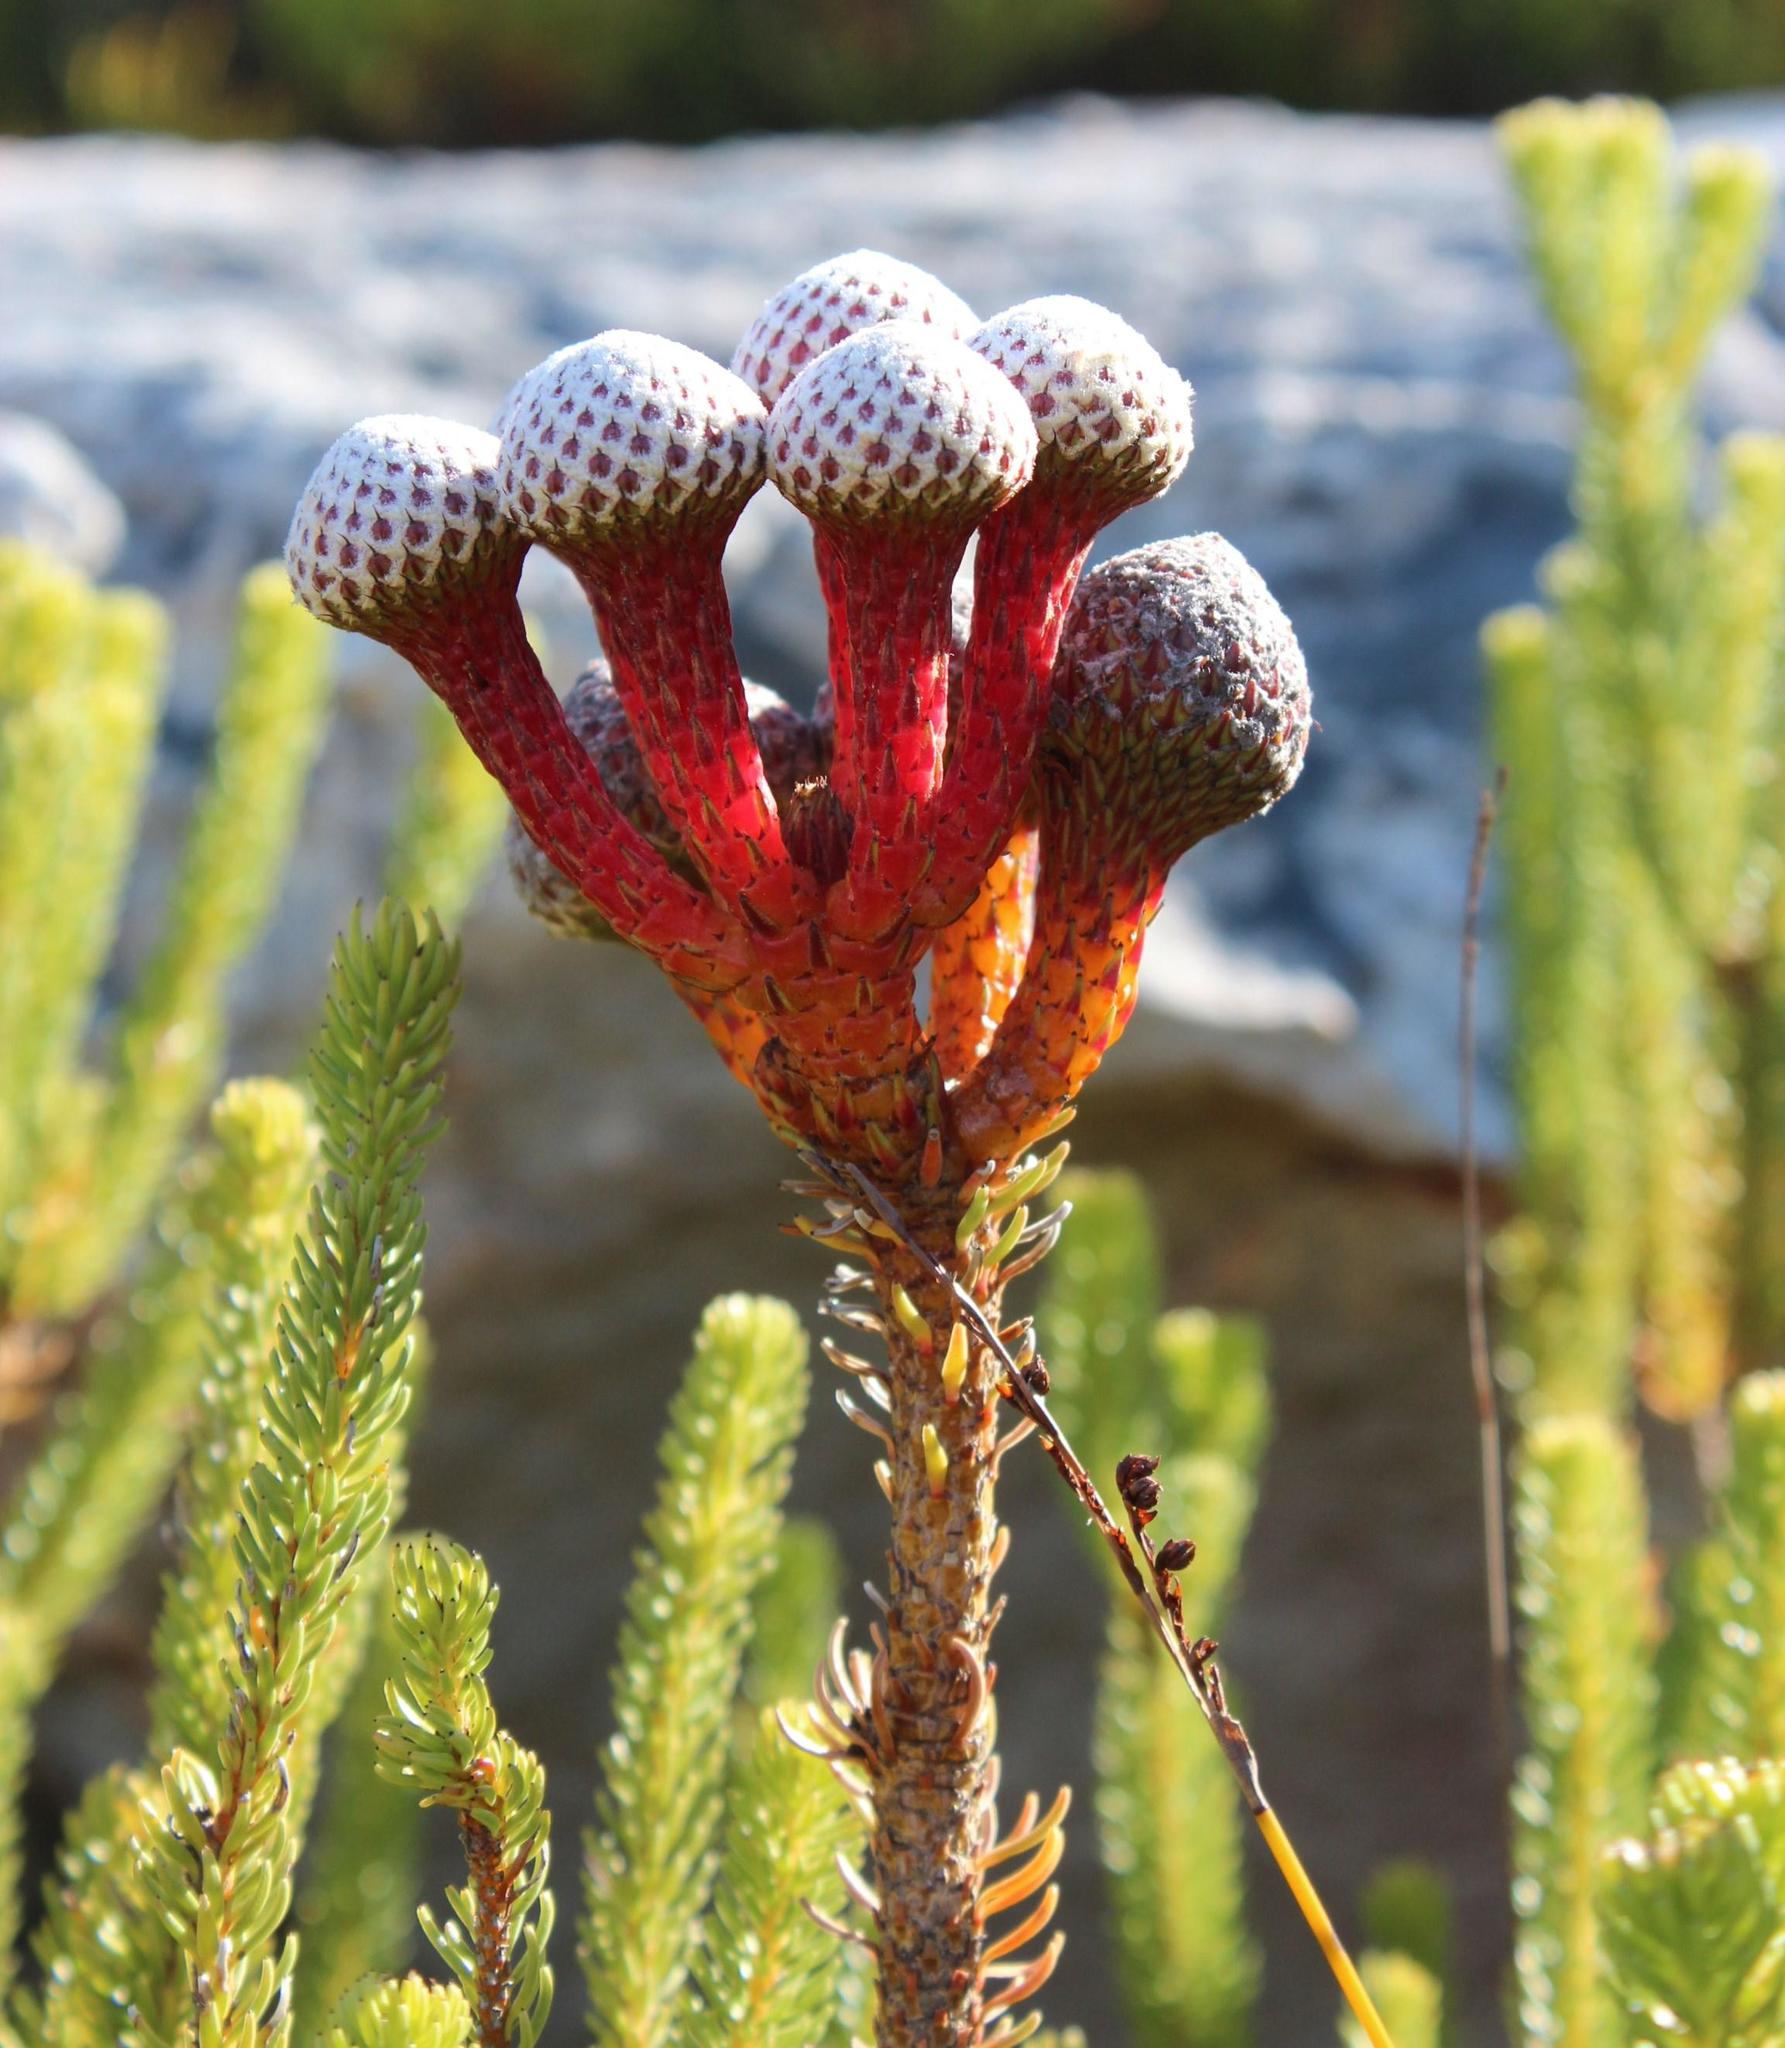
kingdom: Plantae
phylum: Tracheophyta
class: Magnoliopsida
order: Bruniales
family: Bruniaceae
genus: Berzelia
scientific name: Berzelia stokoei
